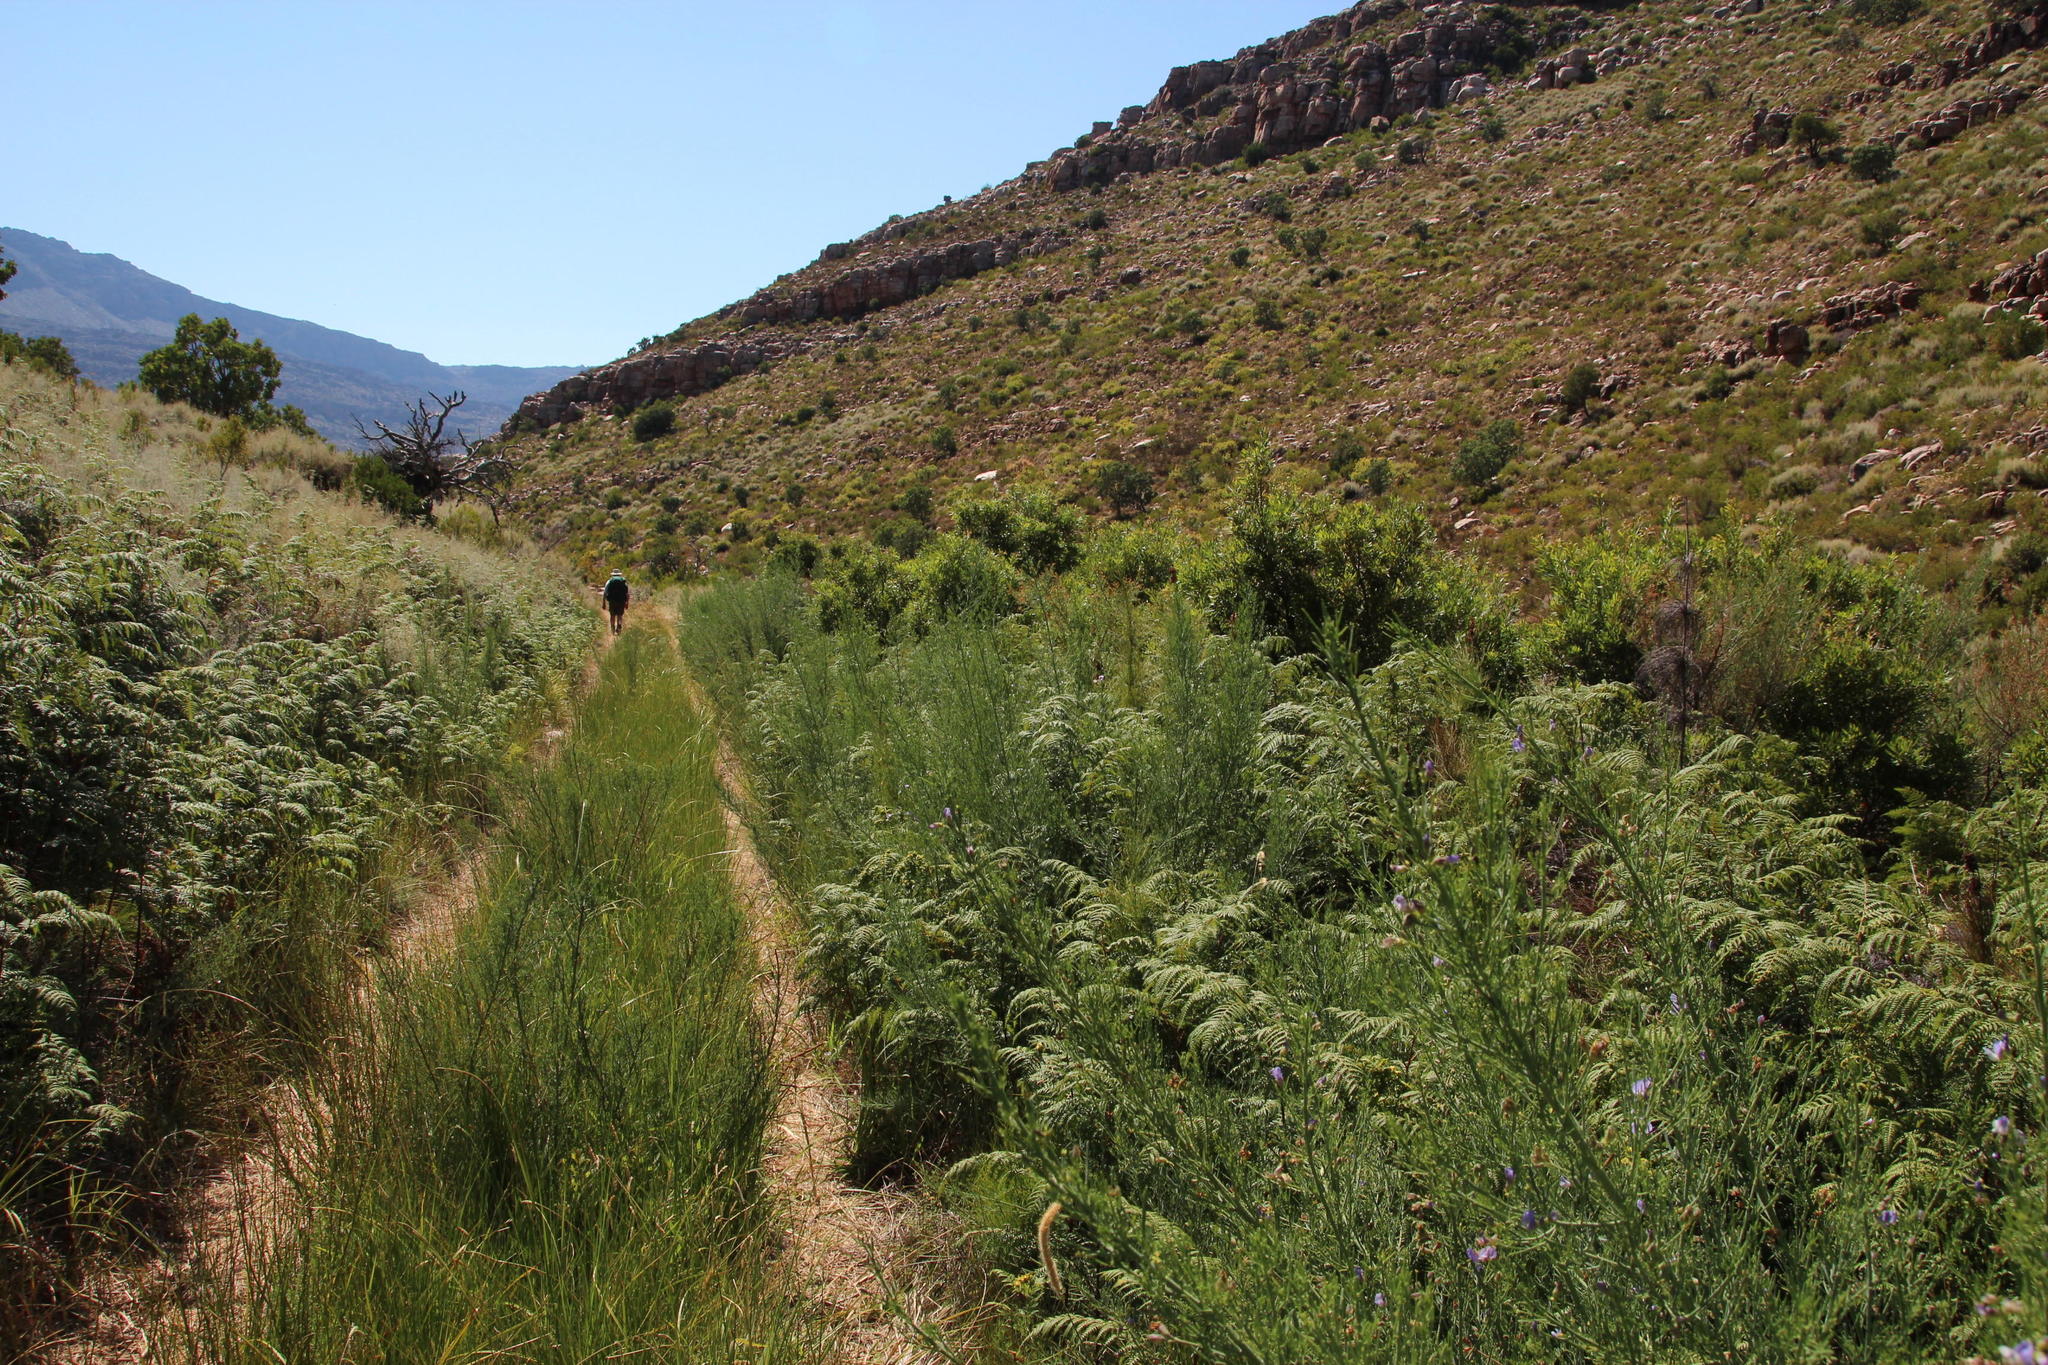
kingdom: Plantae
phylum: Tracheophyta
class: Magnoliopsida
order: Fabales
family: Fabaceae
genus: Psoralea
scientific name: Psoralea verrucosa
